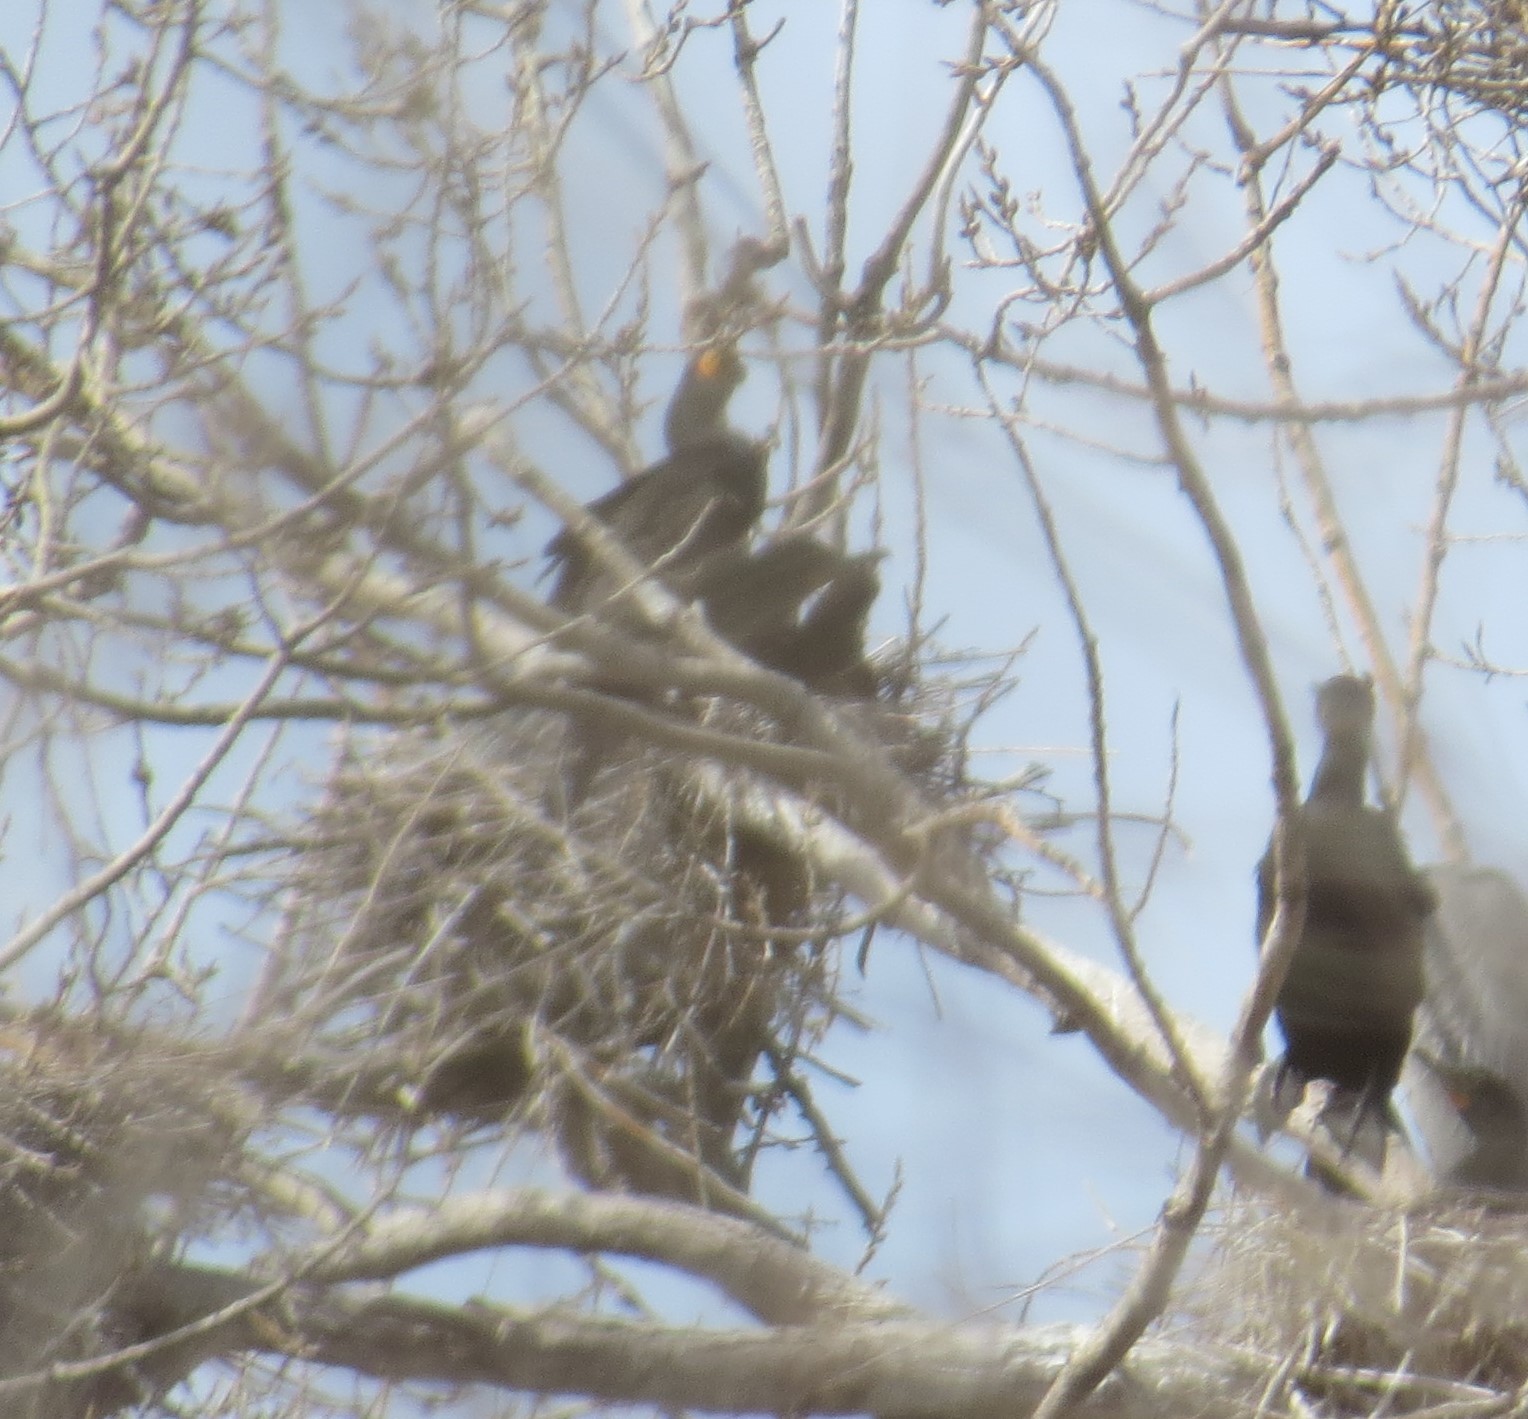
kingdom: Animalia
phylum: Chordata
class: Aves
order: Suliformes
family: Phalacrocoracidae
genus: Phalacrocorax
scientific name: Phalacrocorax auritus
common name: Double-crested cormorant
